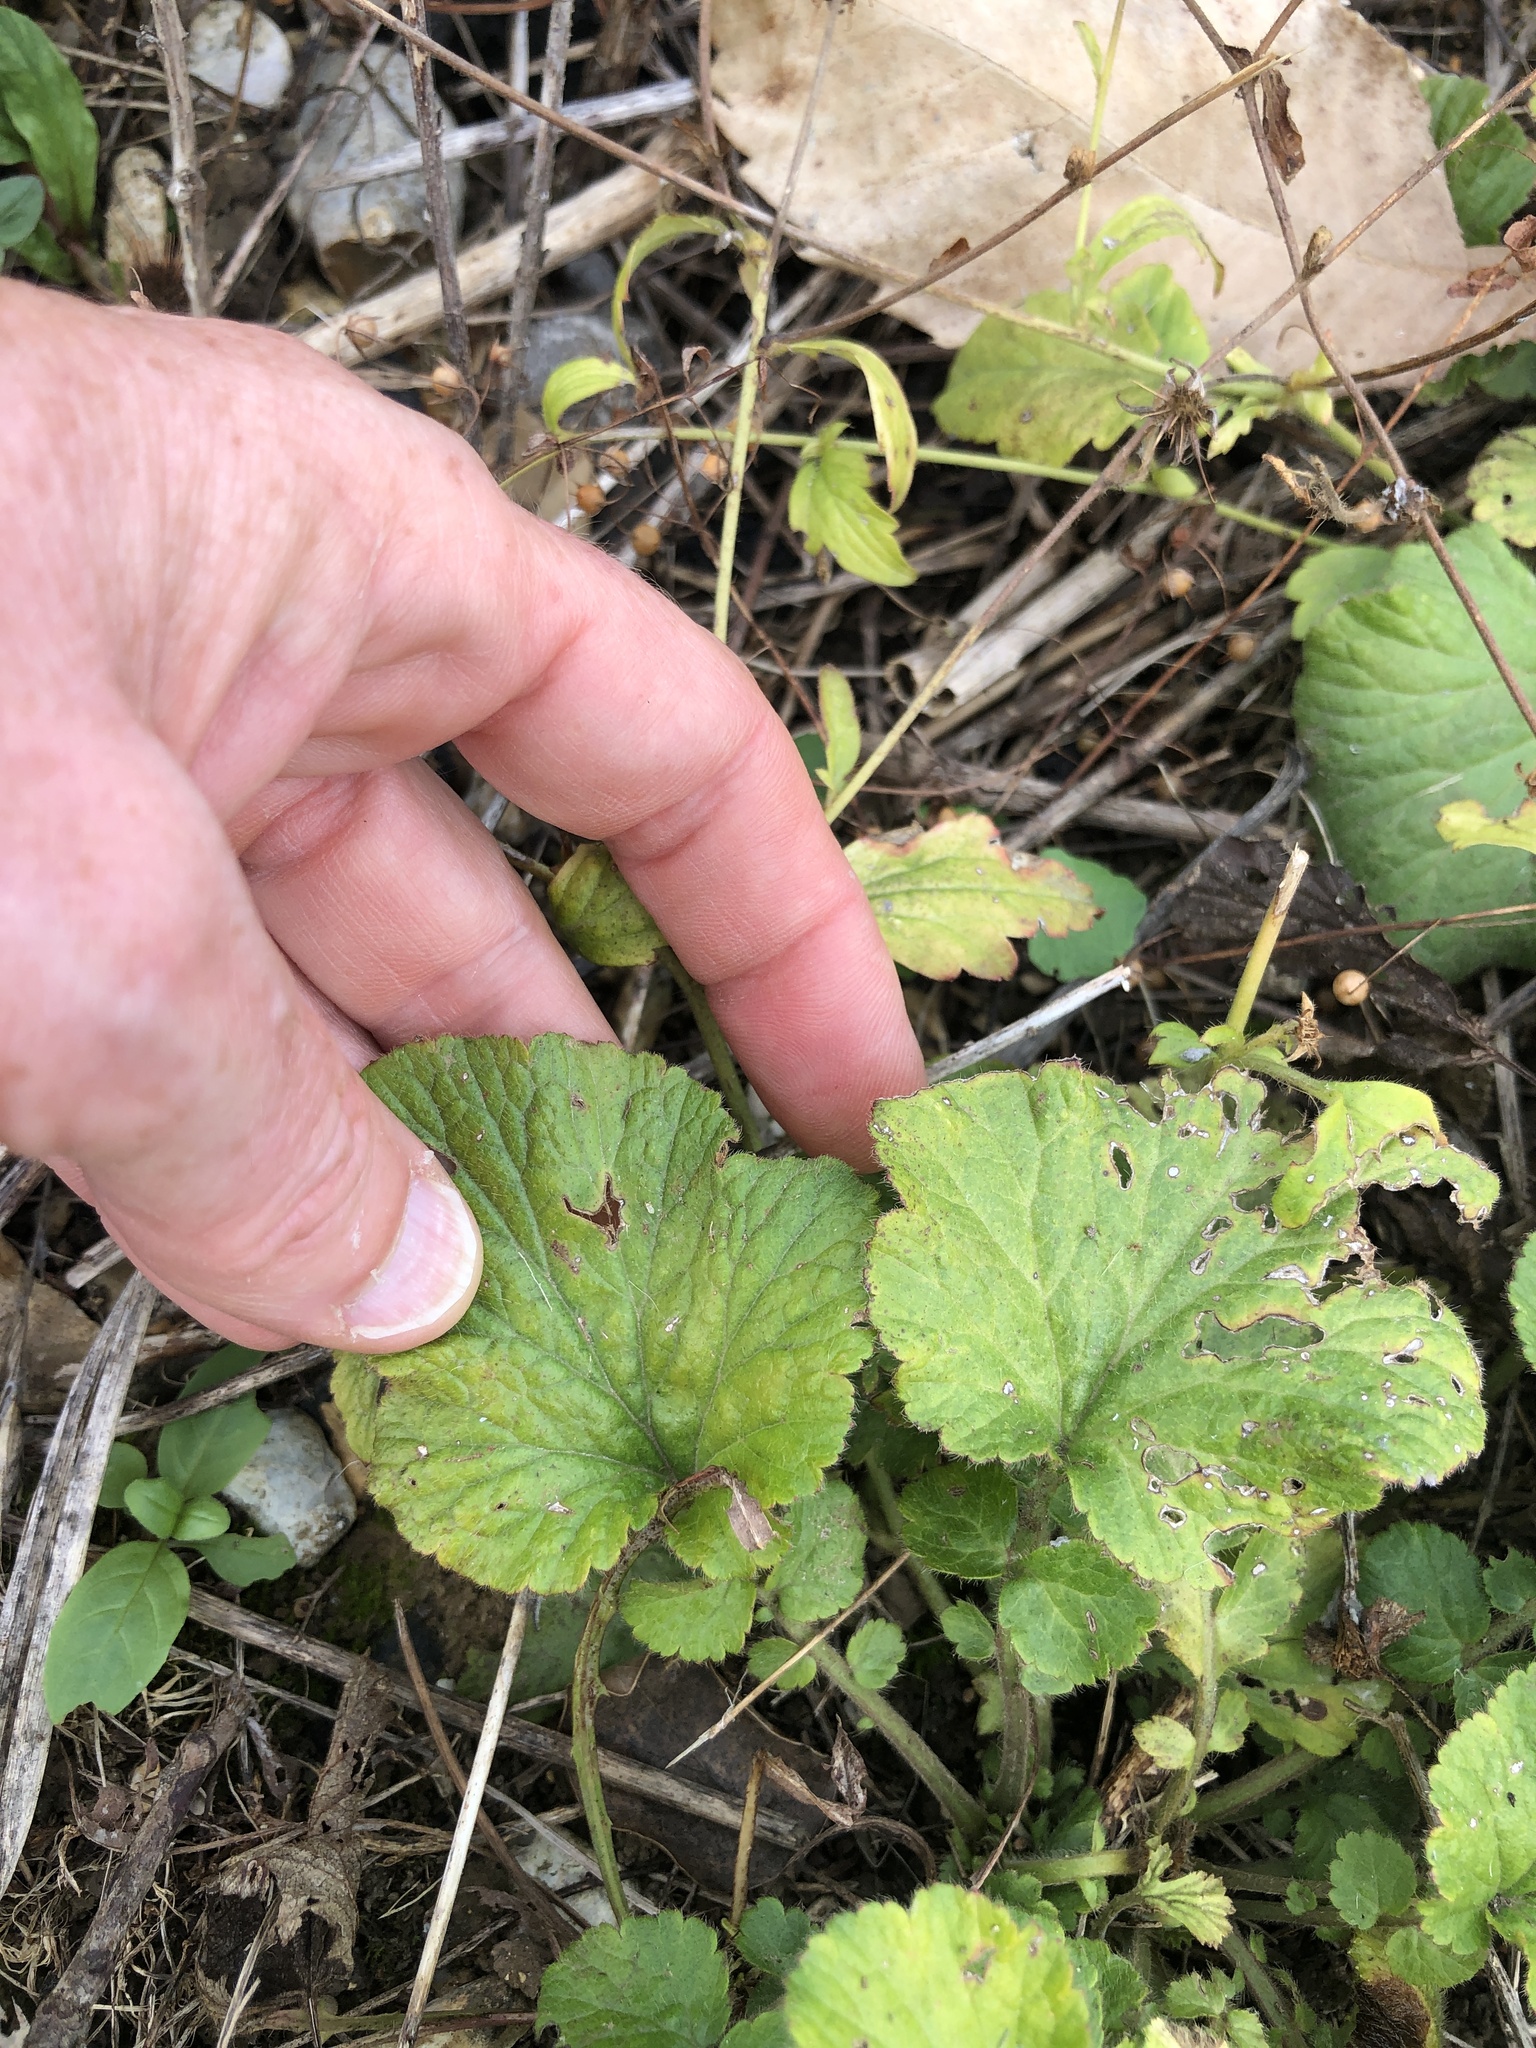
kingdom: Plantae
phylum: Tracheophyta
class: Magnoliopsida
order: Rosales
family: Rosaceae
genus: Geum
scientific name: Geum urbanum
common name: Wood avens
